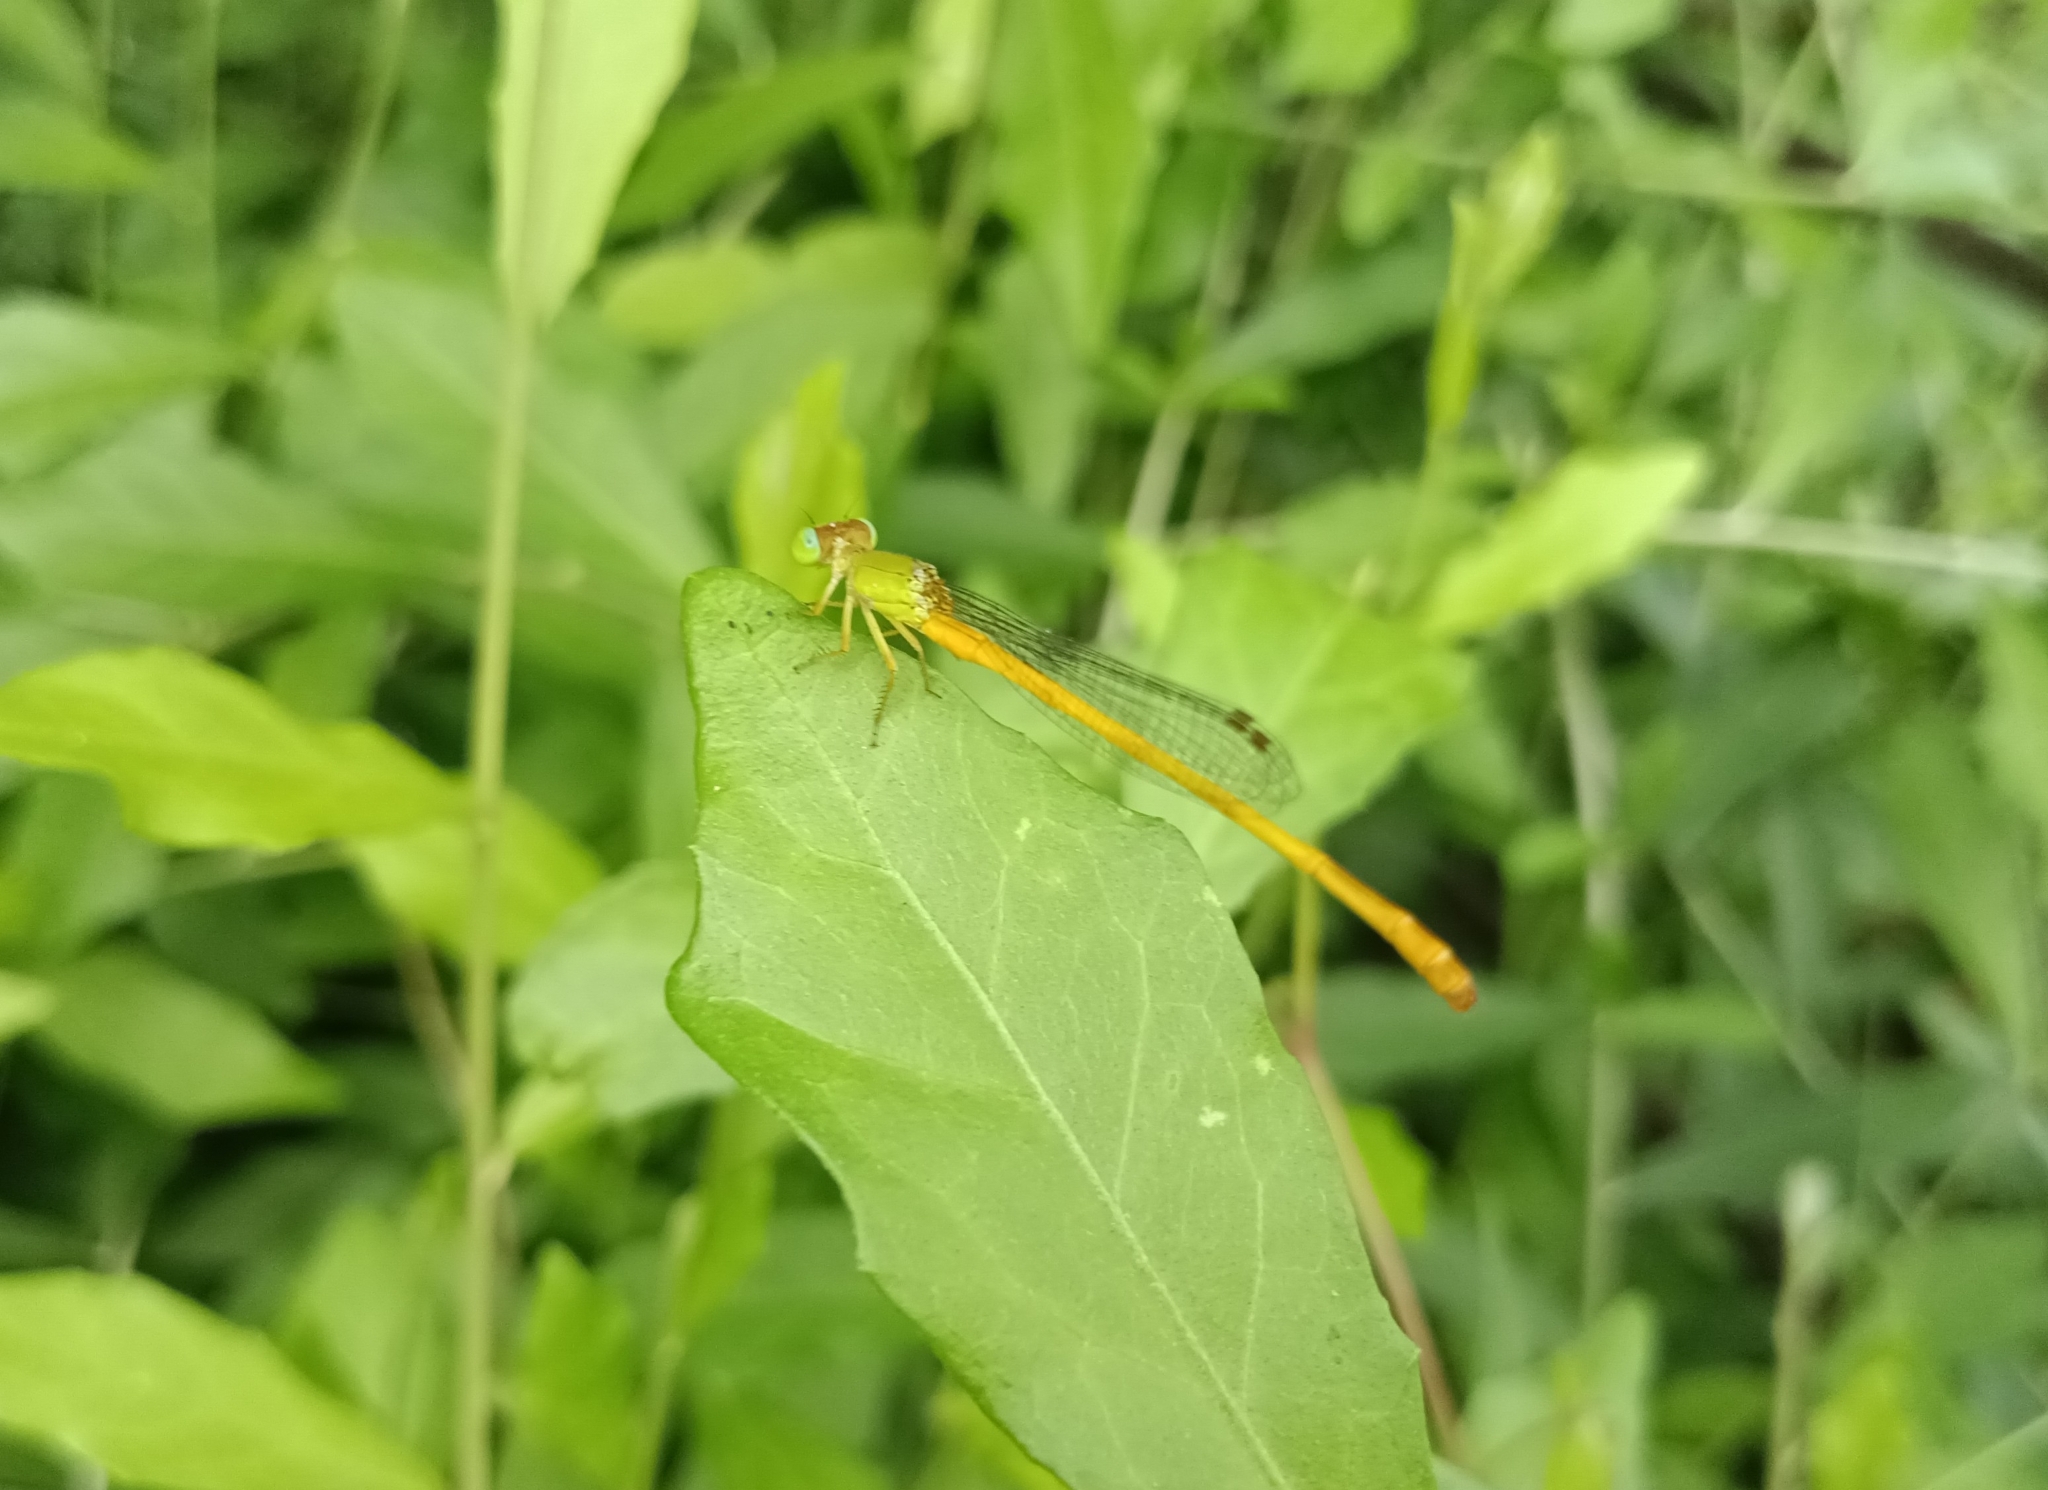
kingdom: Animalia
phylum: Arthropoda
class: Insecta
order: Odonata
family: Coenagrionidae
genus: Ceriagrion
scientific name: Ceriagrion coromandelianum
